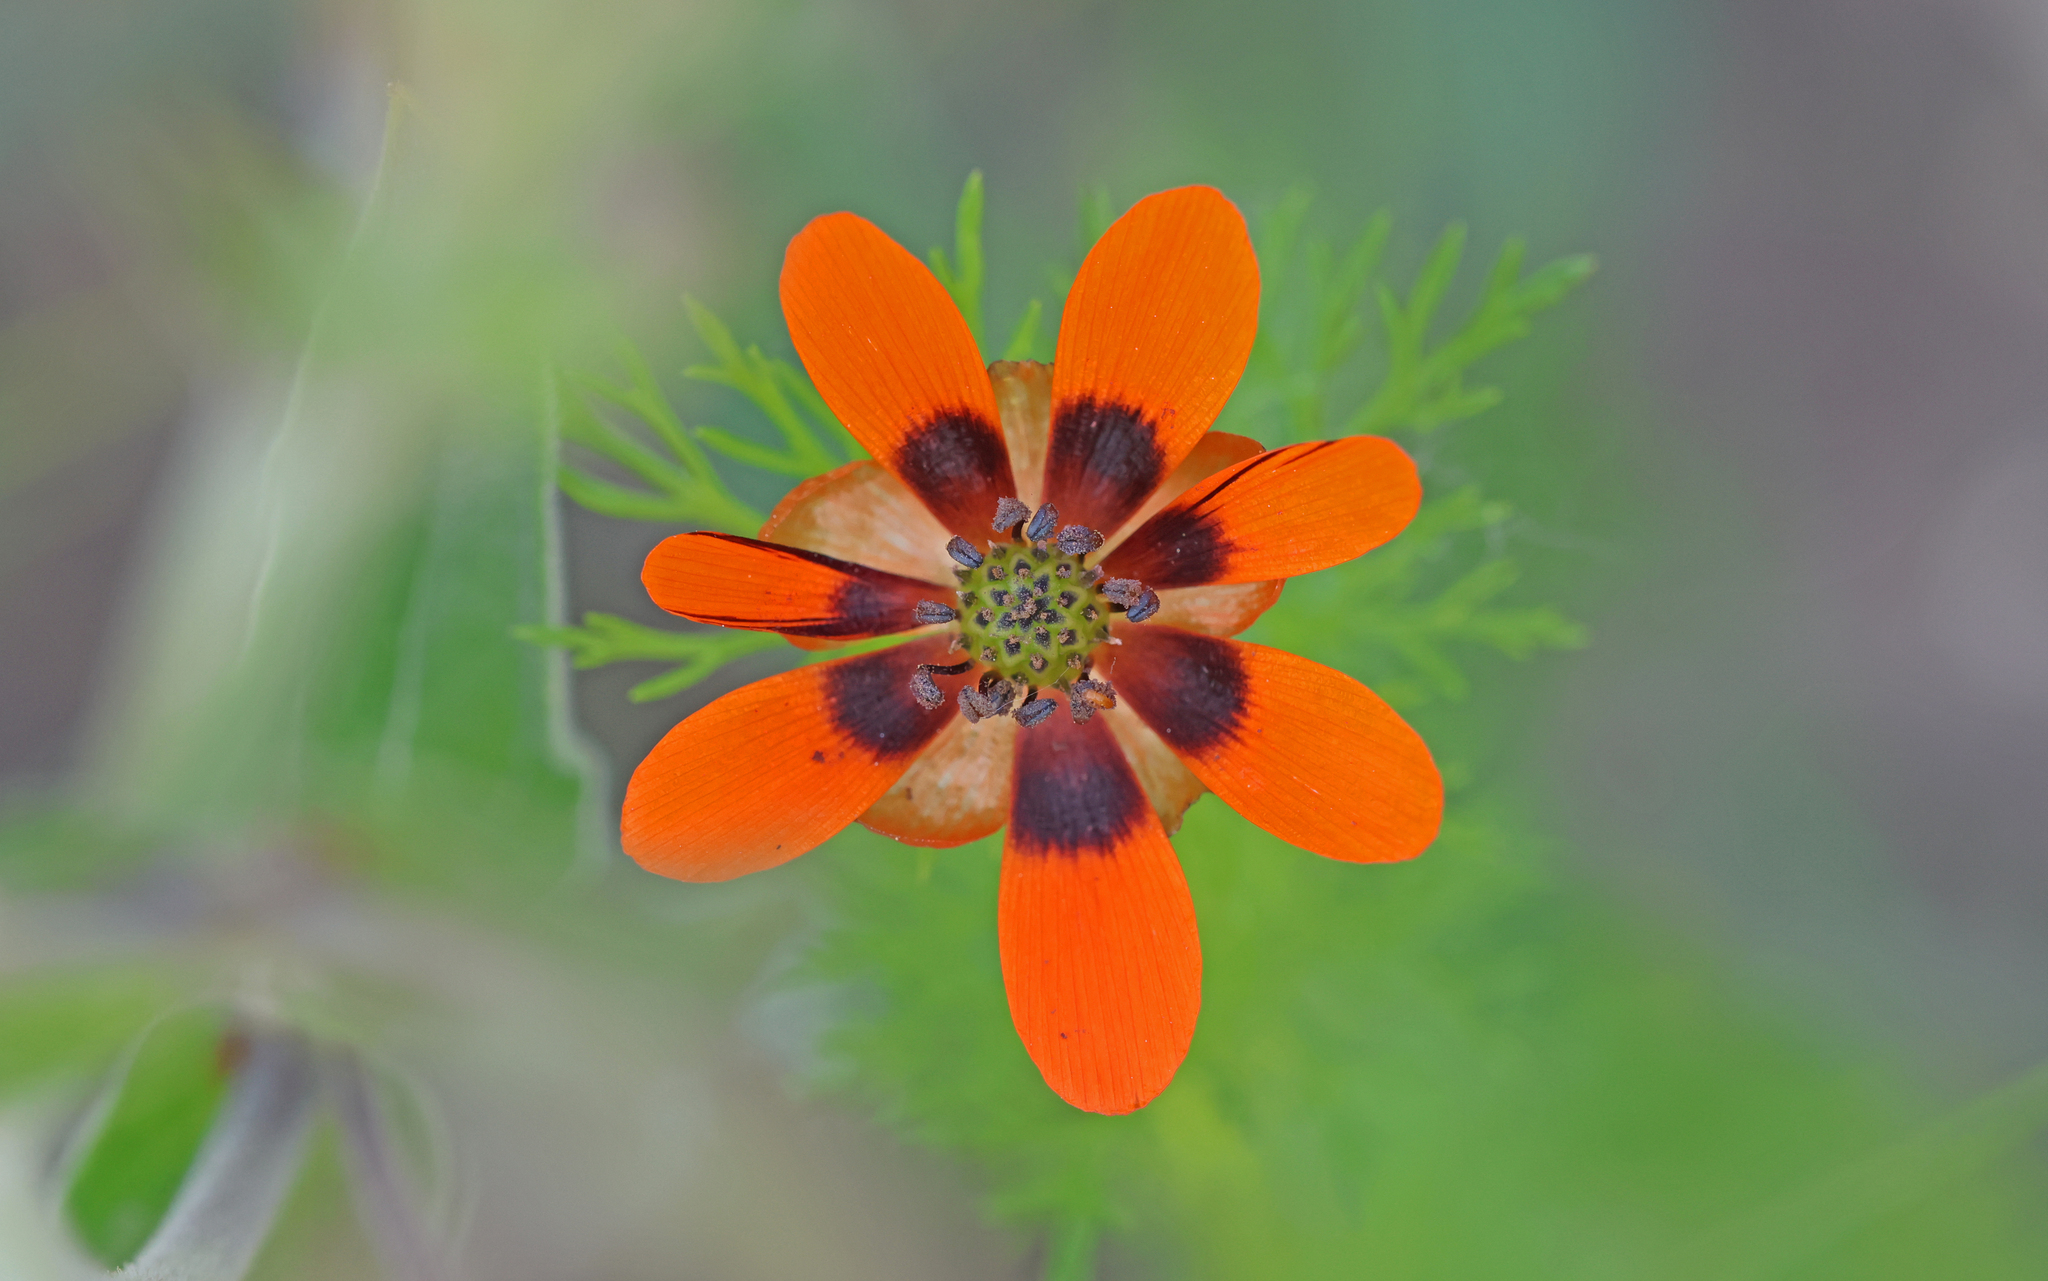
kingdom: Plantae
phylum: Tracheophyta
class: Magnoliopsida
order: Ranunculales
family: Ranunculaceae
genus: Adonis
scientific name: Adonis aestivalis
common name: Summer pheasant's-eye
